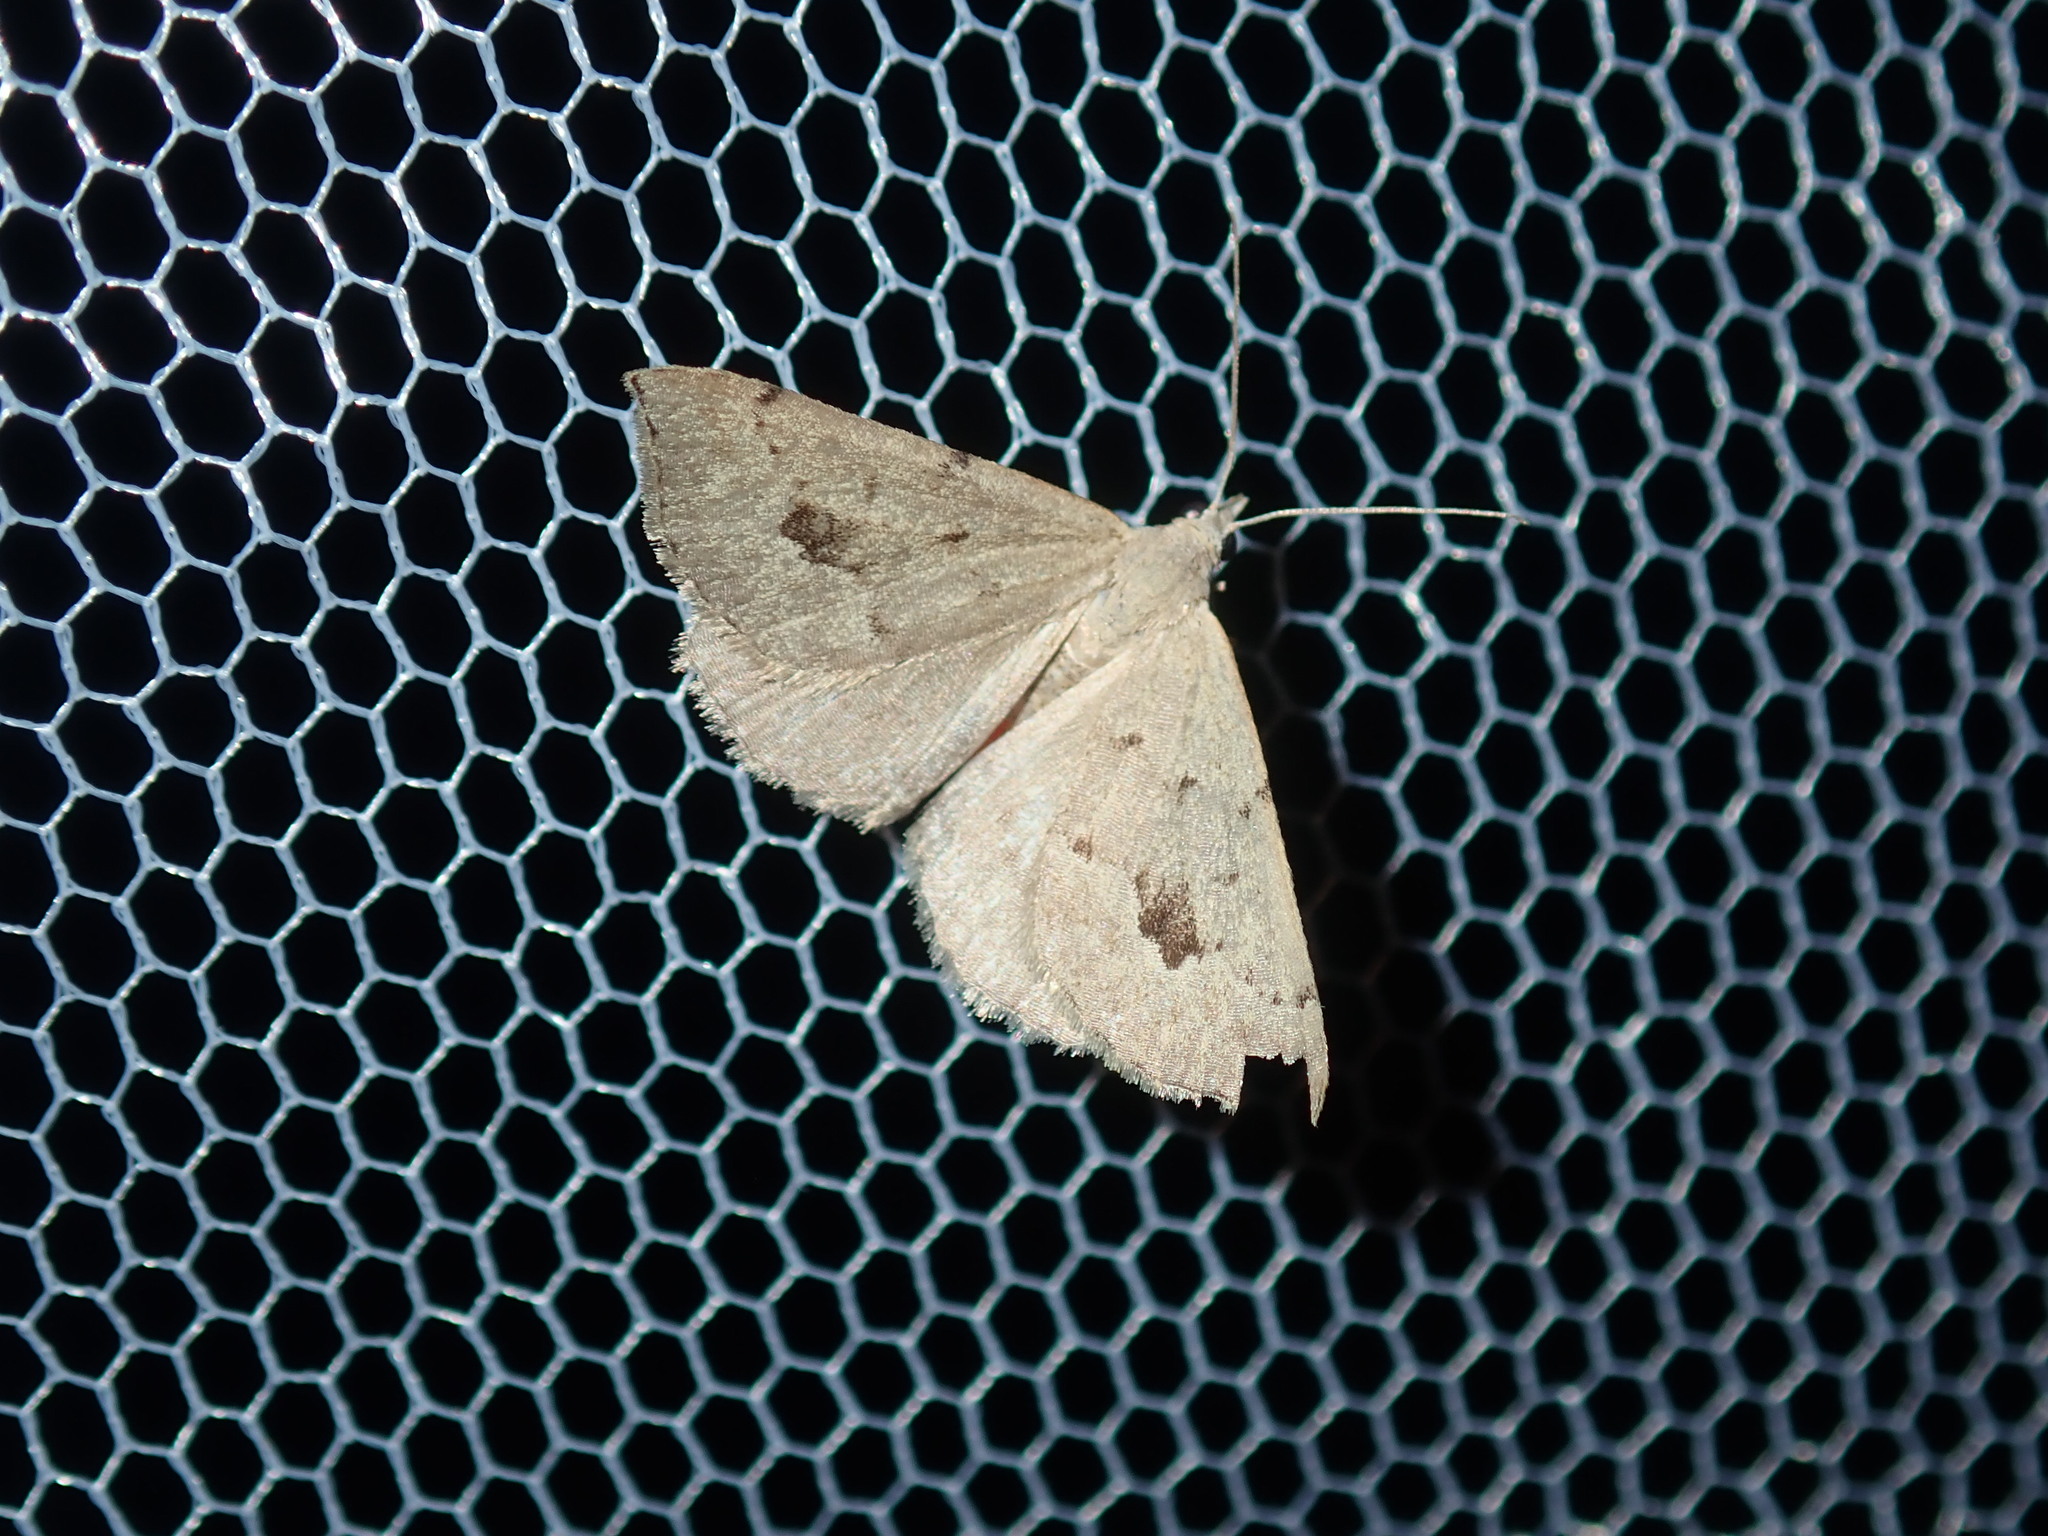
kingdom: Animalia
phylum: Arthropoda
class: Insecta
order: Lepidoptera
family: Geometridae
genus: Dichromodes
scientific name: Dichromodes estigmaria
